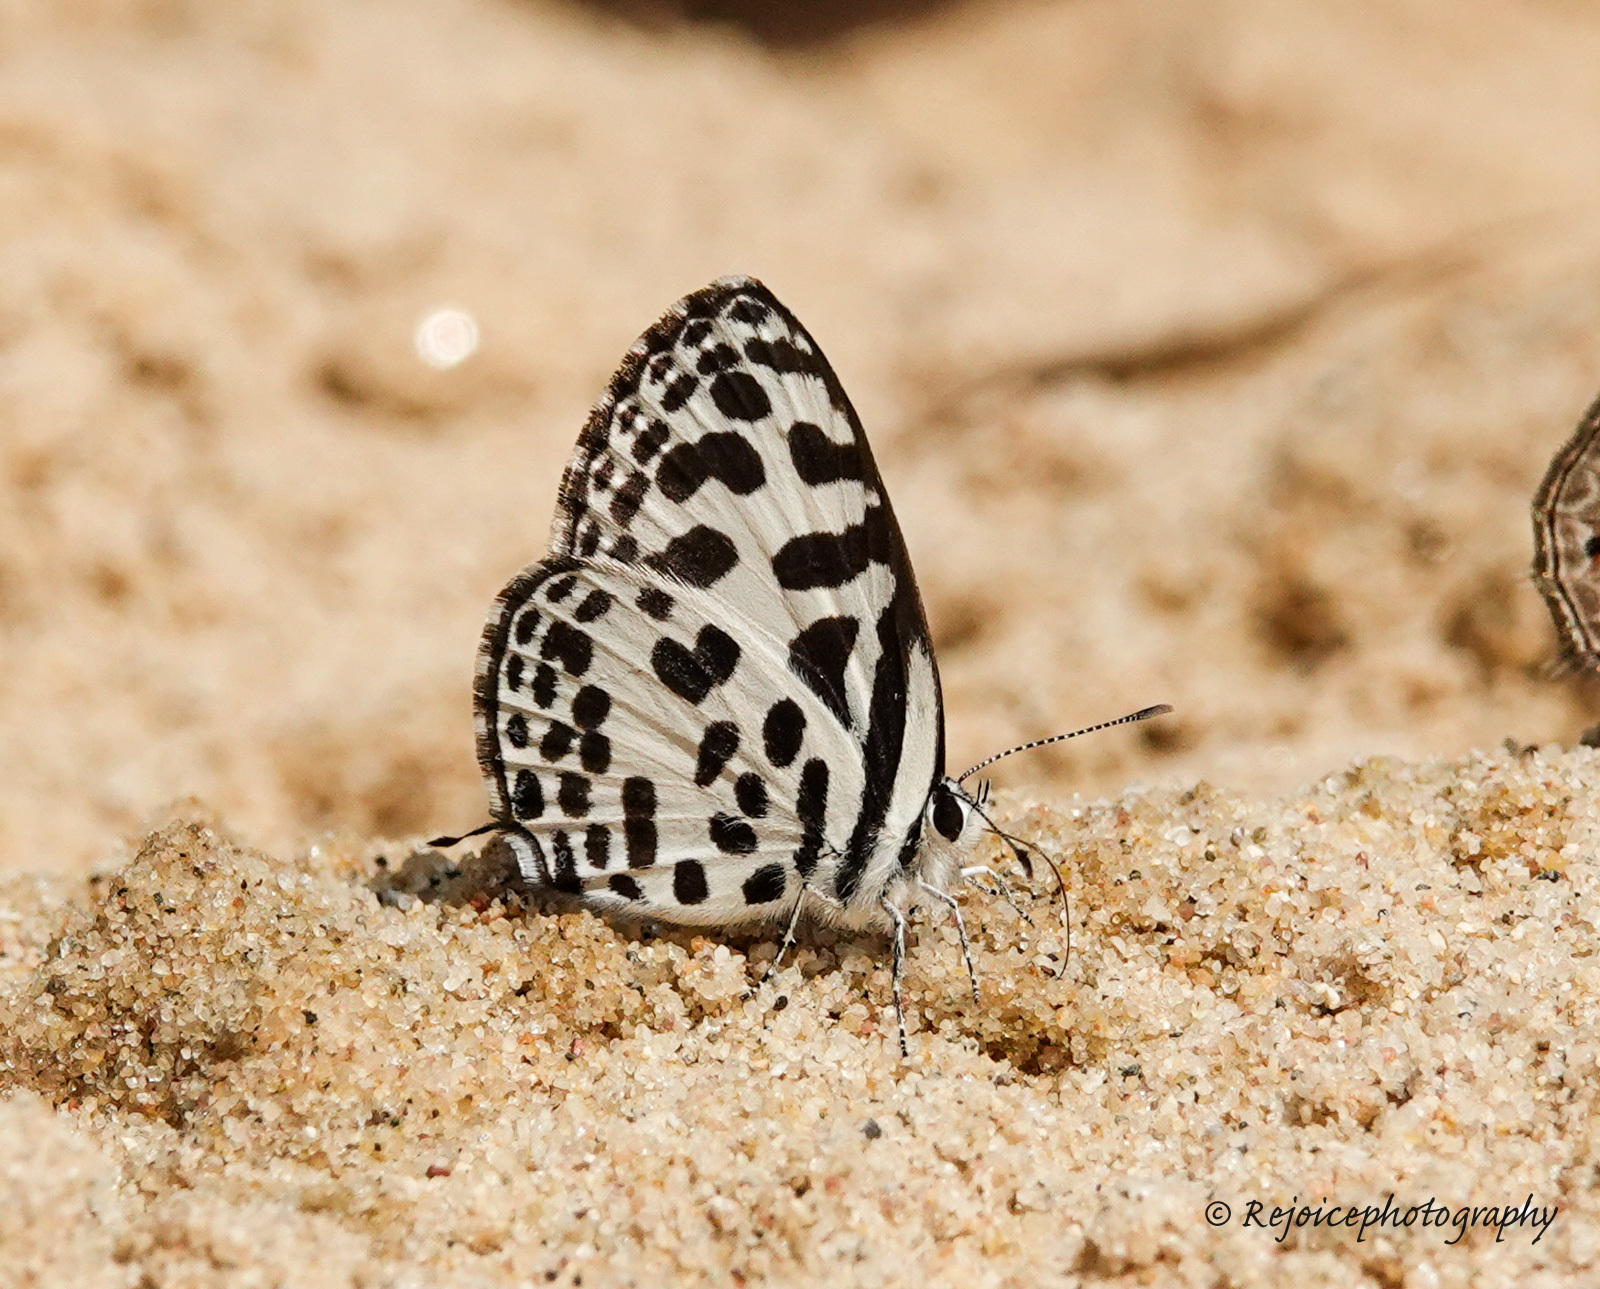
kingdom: Animalia
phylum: Arthropoda
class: Insecta
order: Lepidoptera
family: Lycaenidae
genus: Castalius
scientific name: Castalius rosimon
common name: Common pierrot
